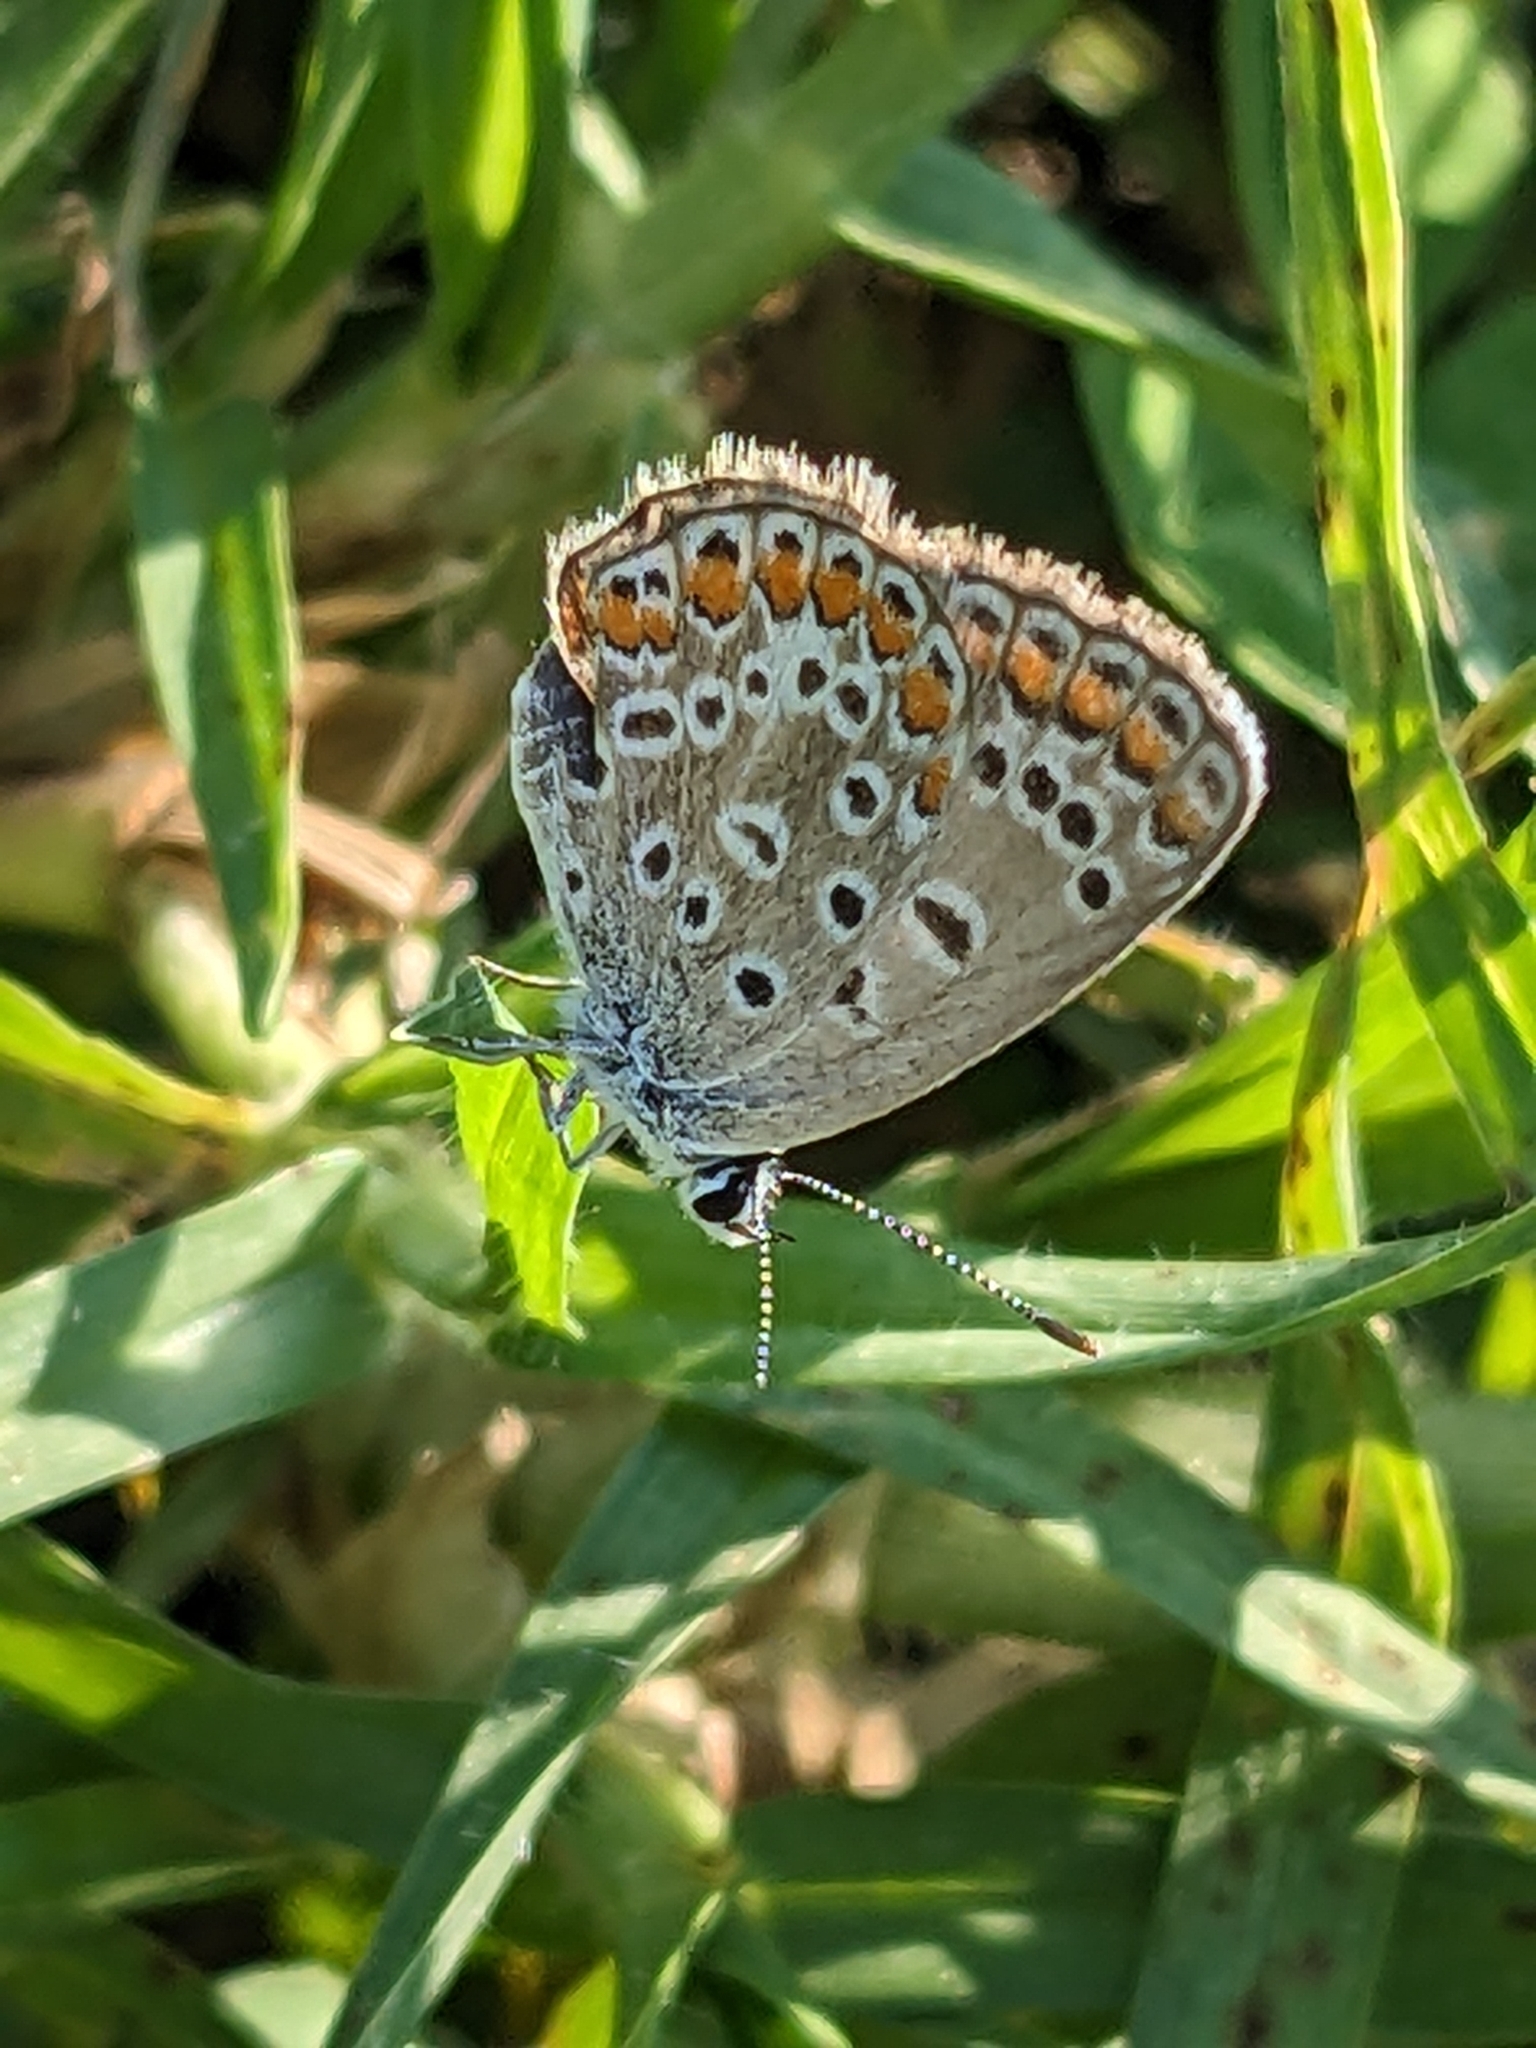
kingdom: Animalia
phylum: Arthropoda
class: Insecta
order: Lepidoptera
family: Lycaenidae
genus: Polyommatus
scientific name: Polyommatus icarus
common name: Common blue
